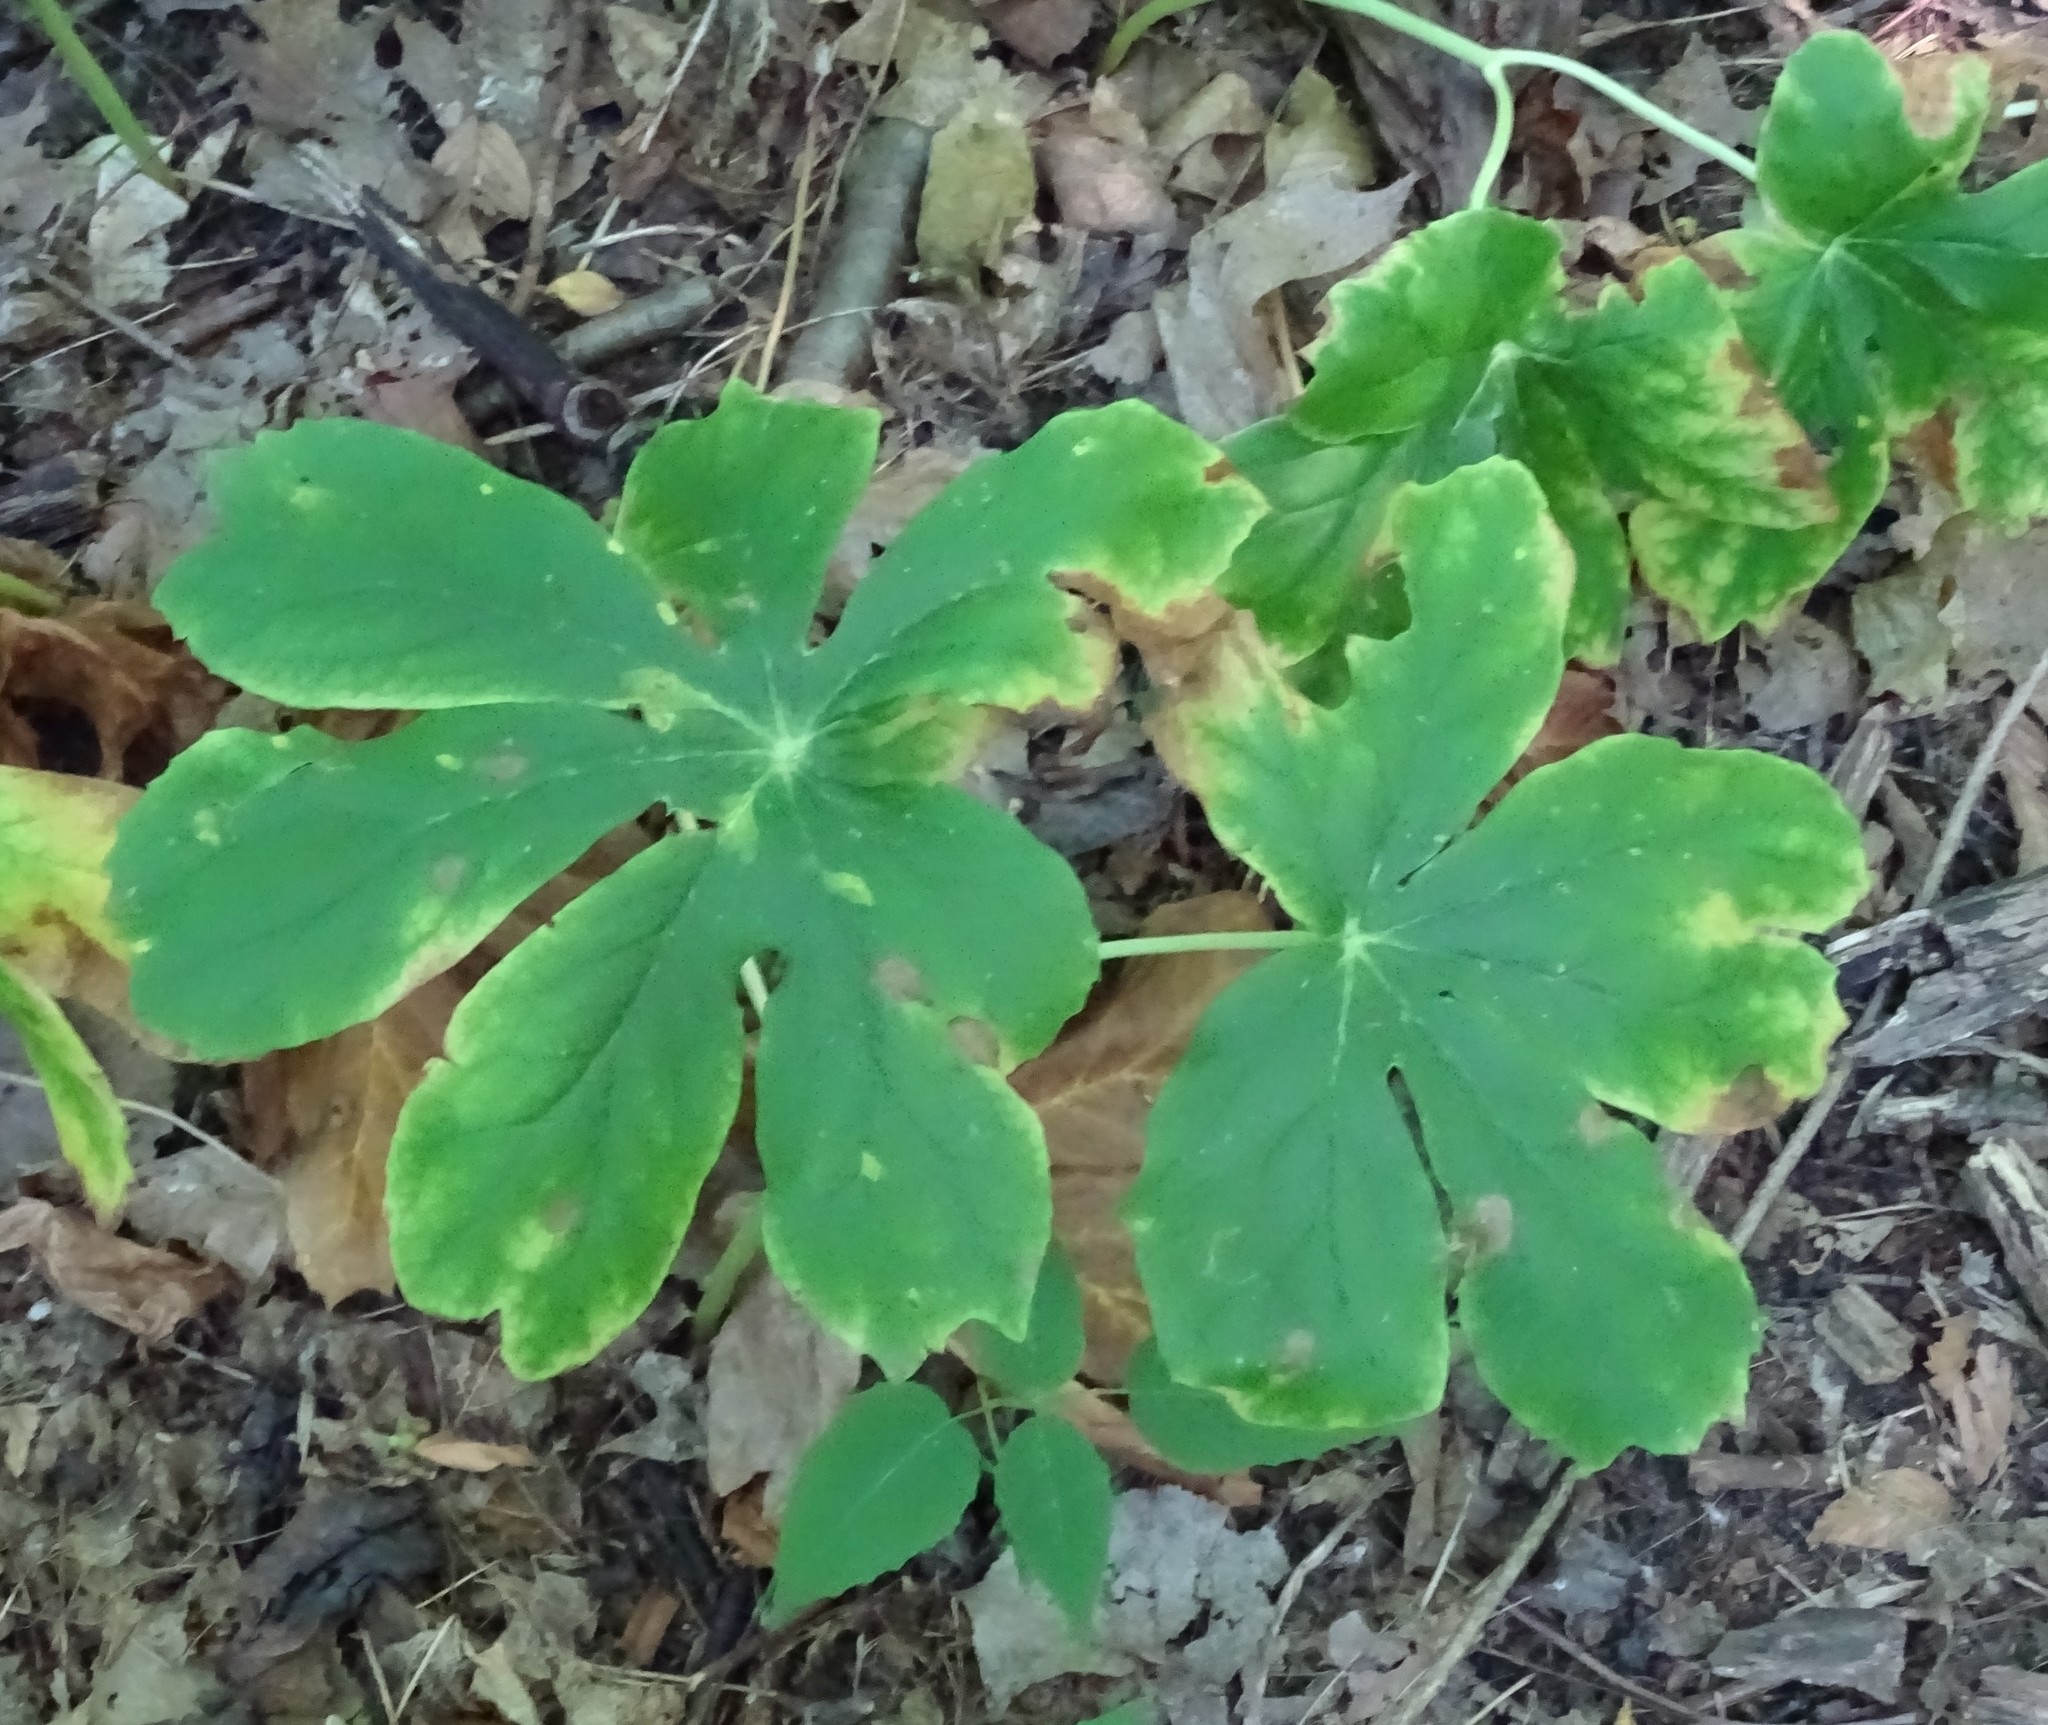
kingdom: Plantae
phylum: Tracheophyta
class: Magnoliopsida
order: Ranunculales
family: Berberidaceae
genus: Podophyllum
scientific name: Podophyllum peltatum
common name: Wild mandrake
